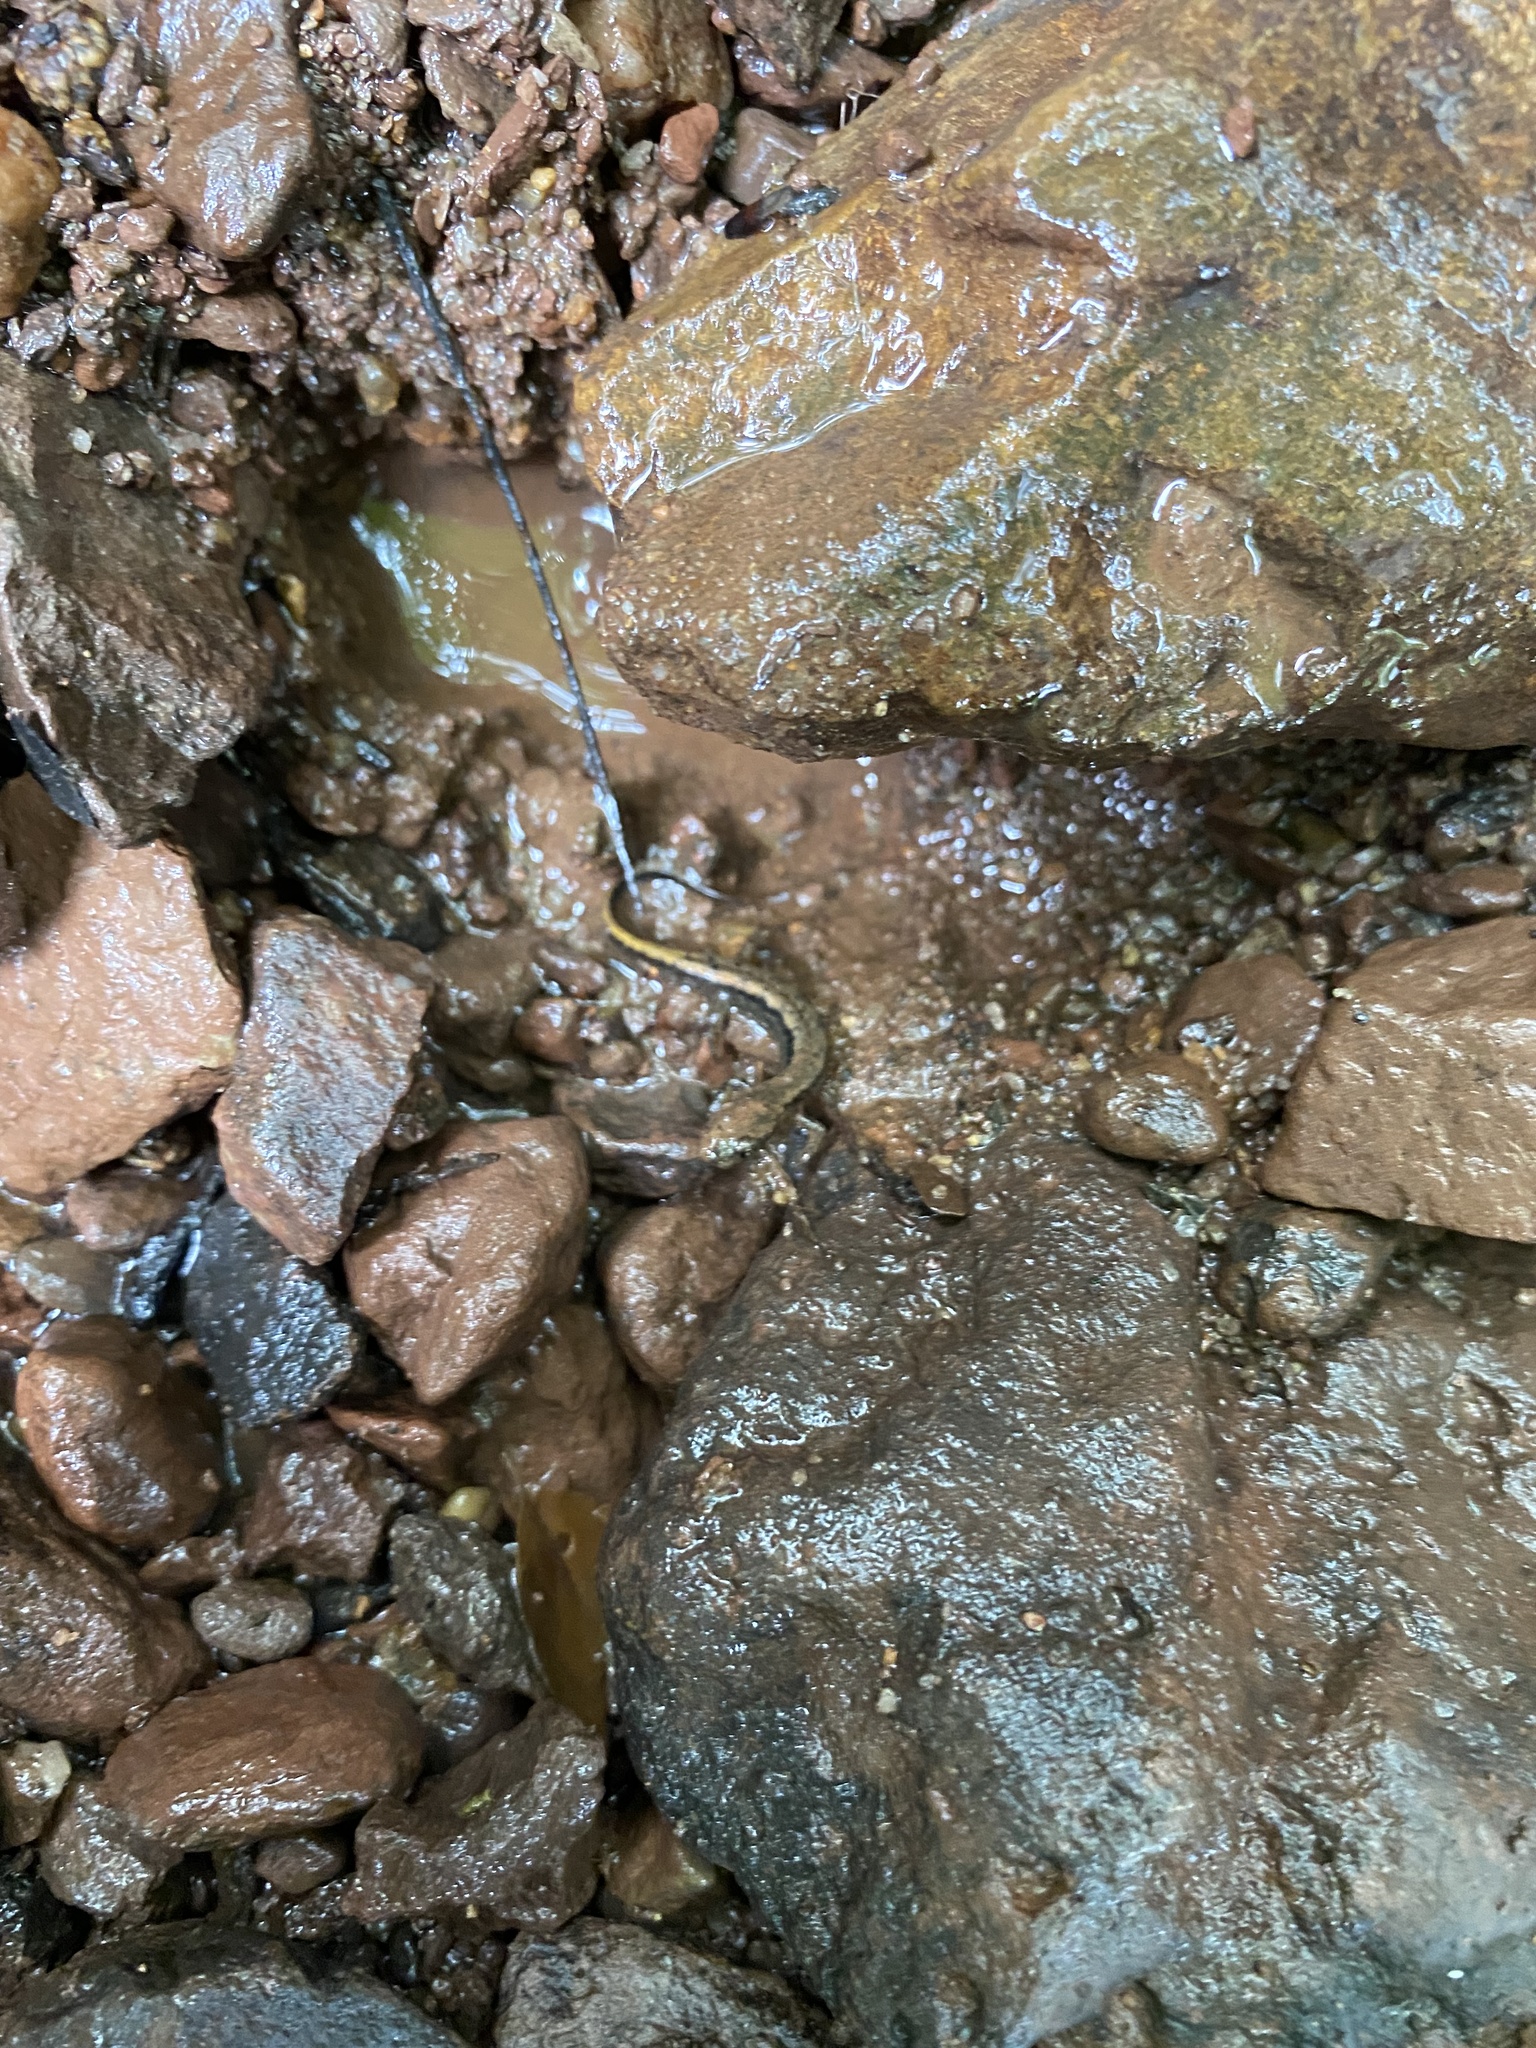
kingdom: Animalia
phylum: Chordata
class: Amphibia
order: Caudata
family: Plethodontidae
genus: Eurycea
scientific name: Eurycea bislineata
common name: Northern two-lined salamander
